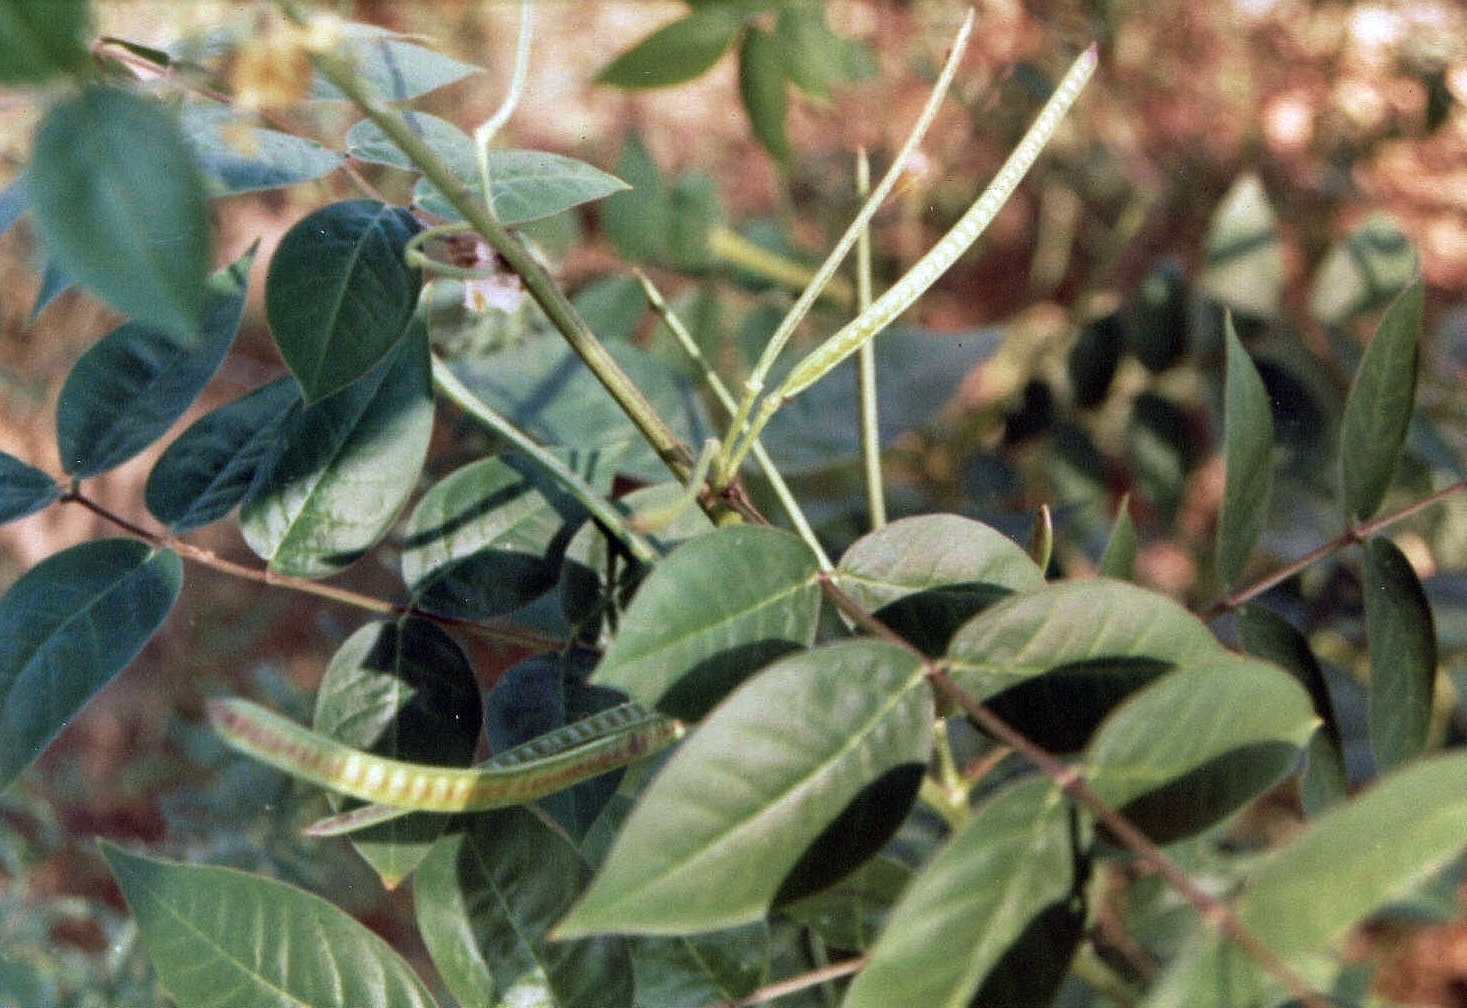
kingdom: Plantae
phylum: Tracheophyta
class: Magnoliopsida
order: Fabales
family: Fabaceae
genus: Senna
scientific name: Senna occidentalis
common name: Septicweed
